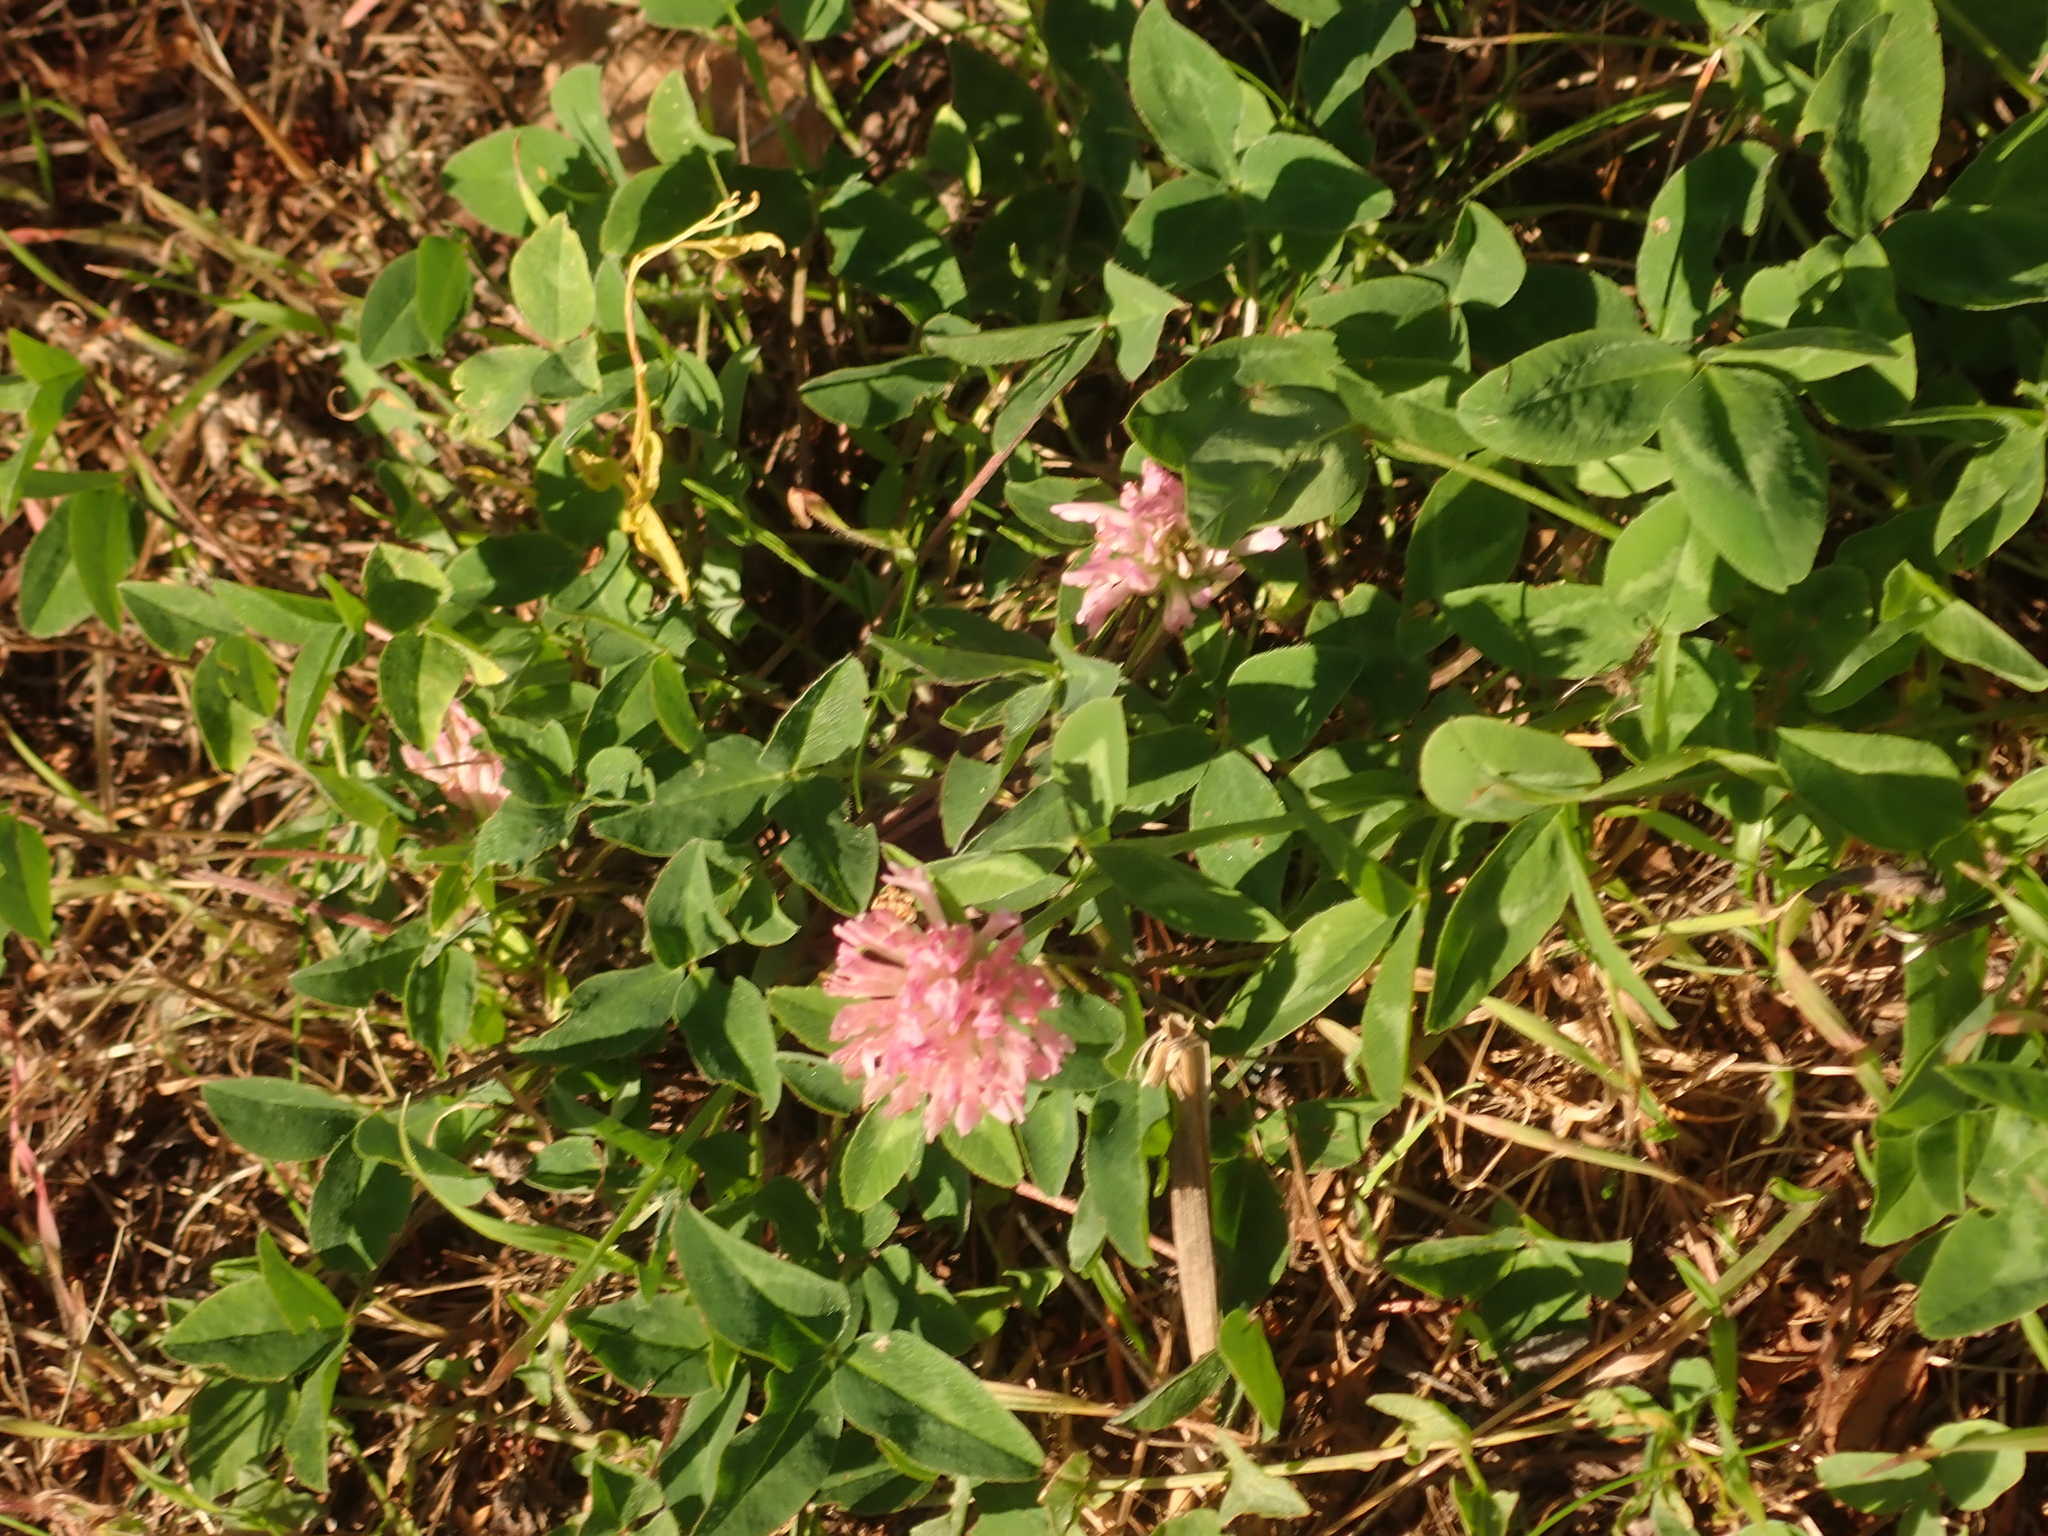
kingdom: Plantae
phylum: Tracheophyta
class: Magnoliopsida
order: Fabales
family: Fabaceae
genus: Trifolium
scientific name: Trifolium pratense
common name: Red clover
